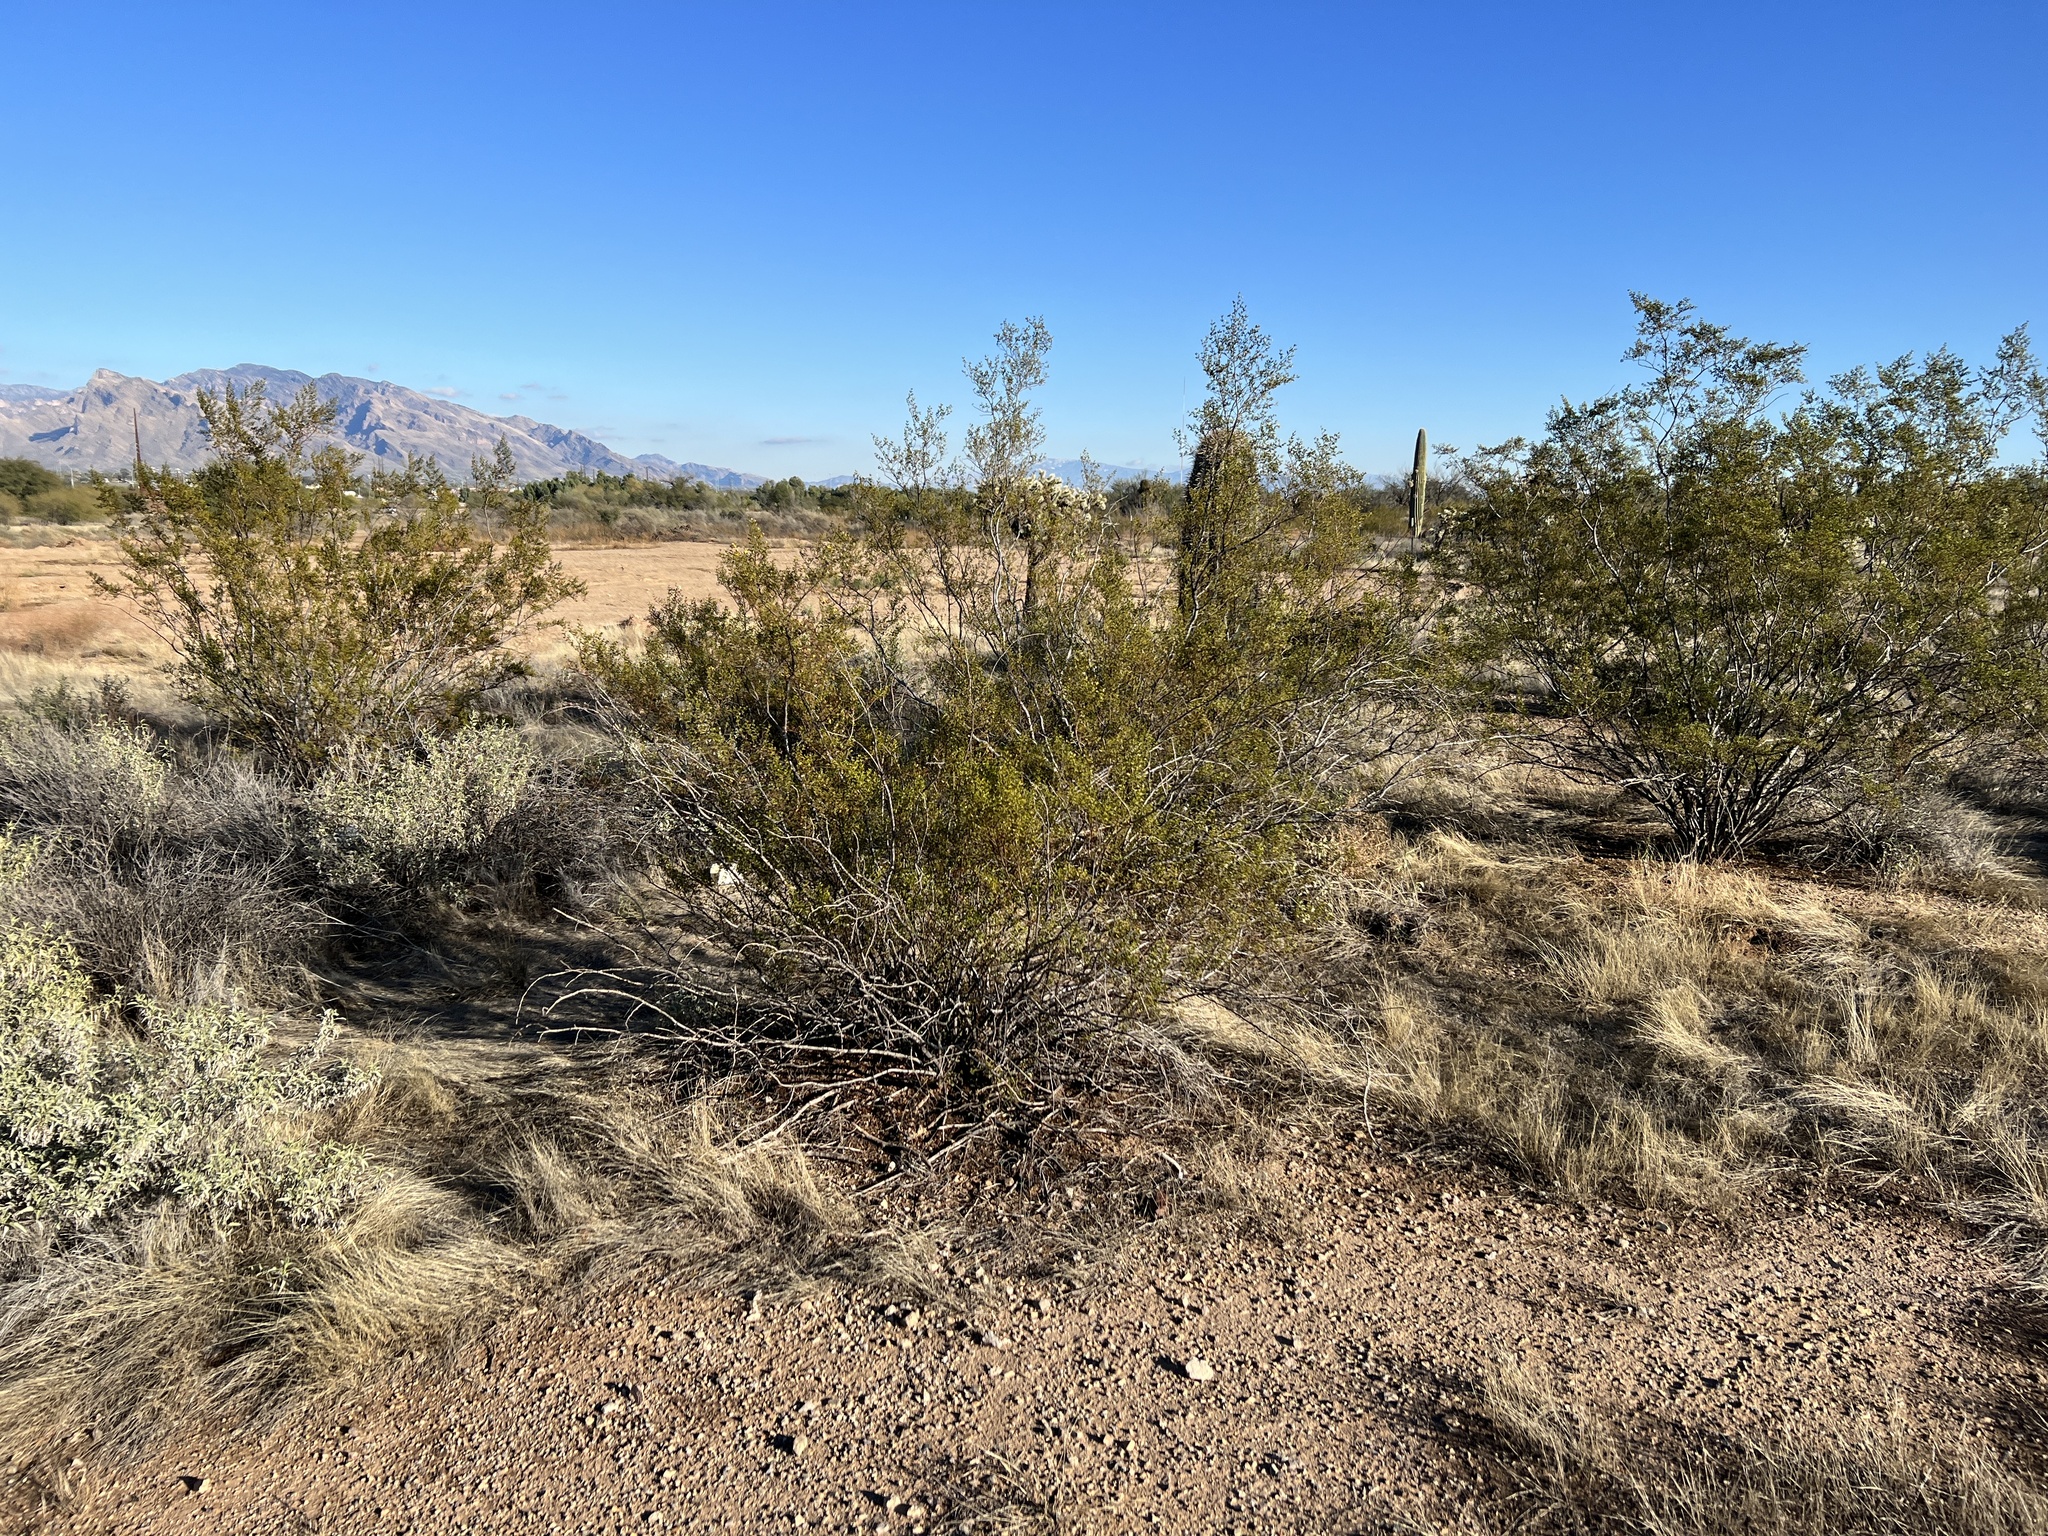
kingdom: Plantae
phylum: Tracheophyta
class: Magnoliopsida
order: Zygophyllales
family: Zygophyllaceae
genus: Larrea
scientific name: Larrea tridentata
